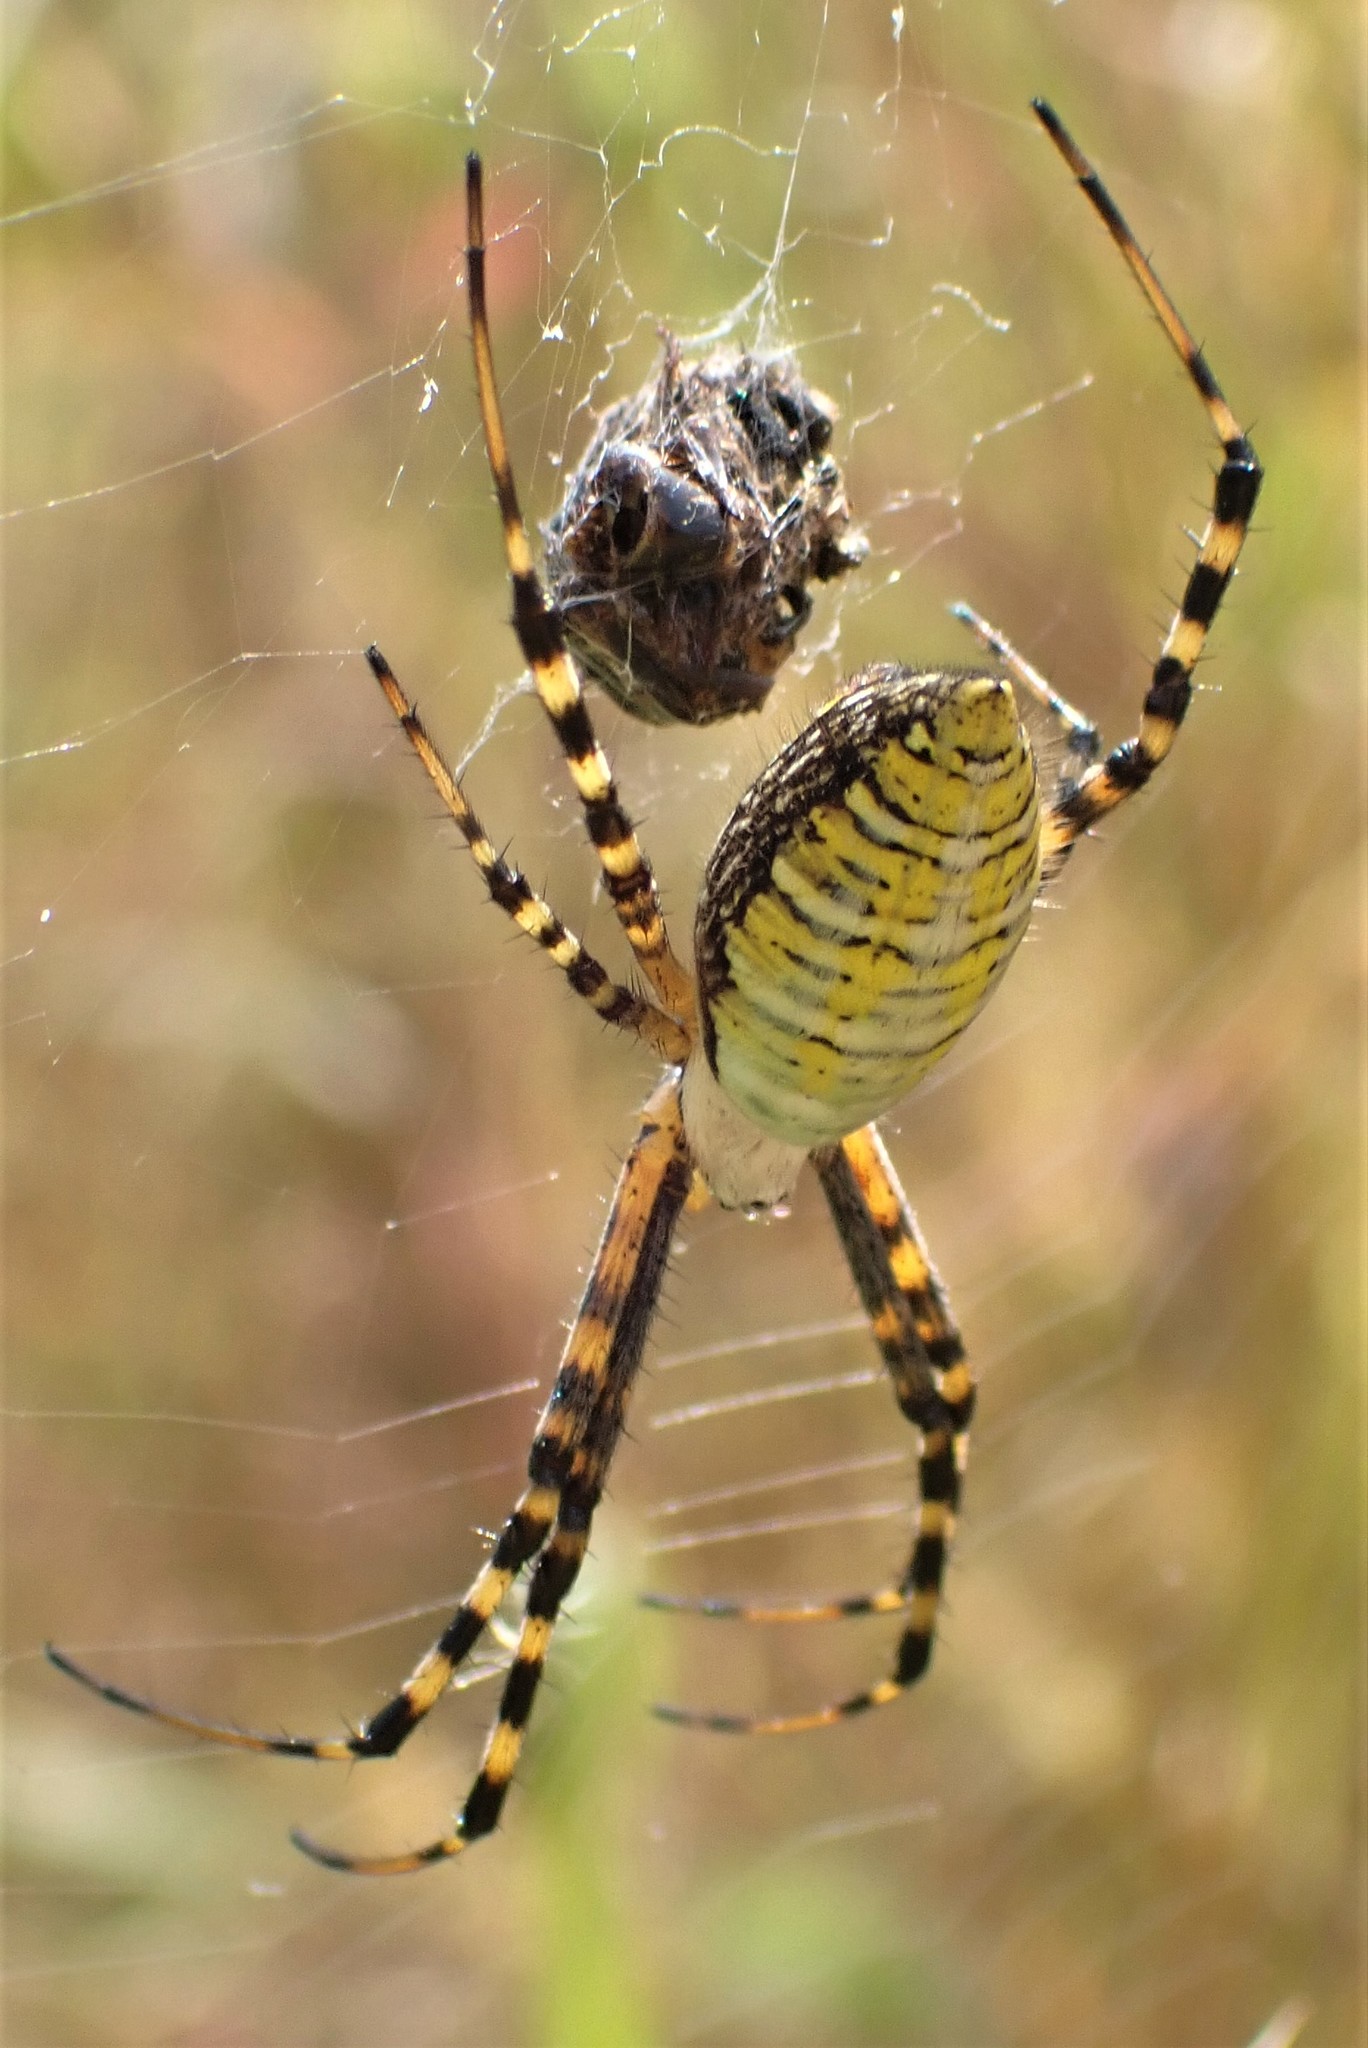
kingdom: Animalia
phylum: Arthropoda
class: Arachnida
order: Araneae
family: Araneidae
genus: Argiope
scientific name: Argiope trifasciata
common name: Banded garden spider
